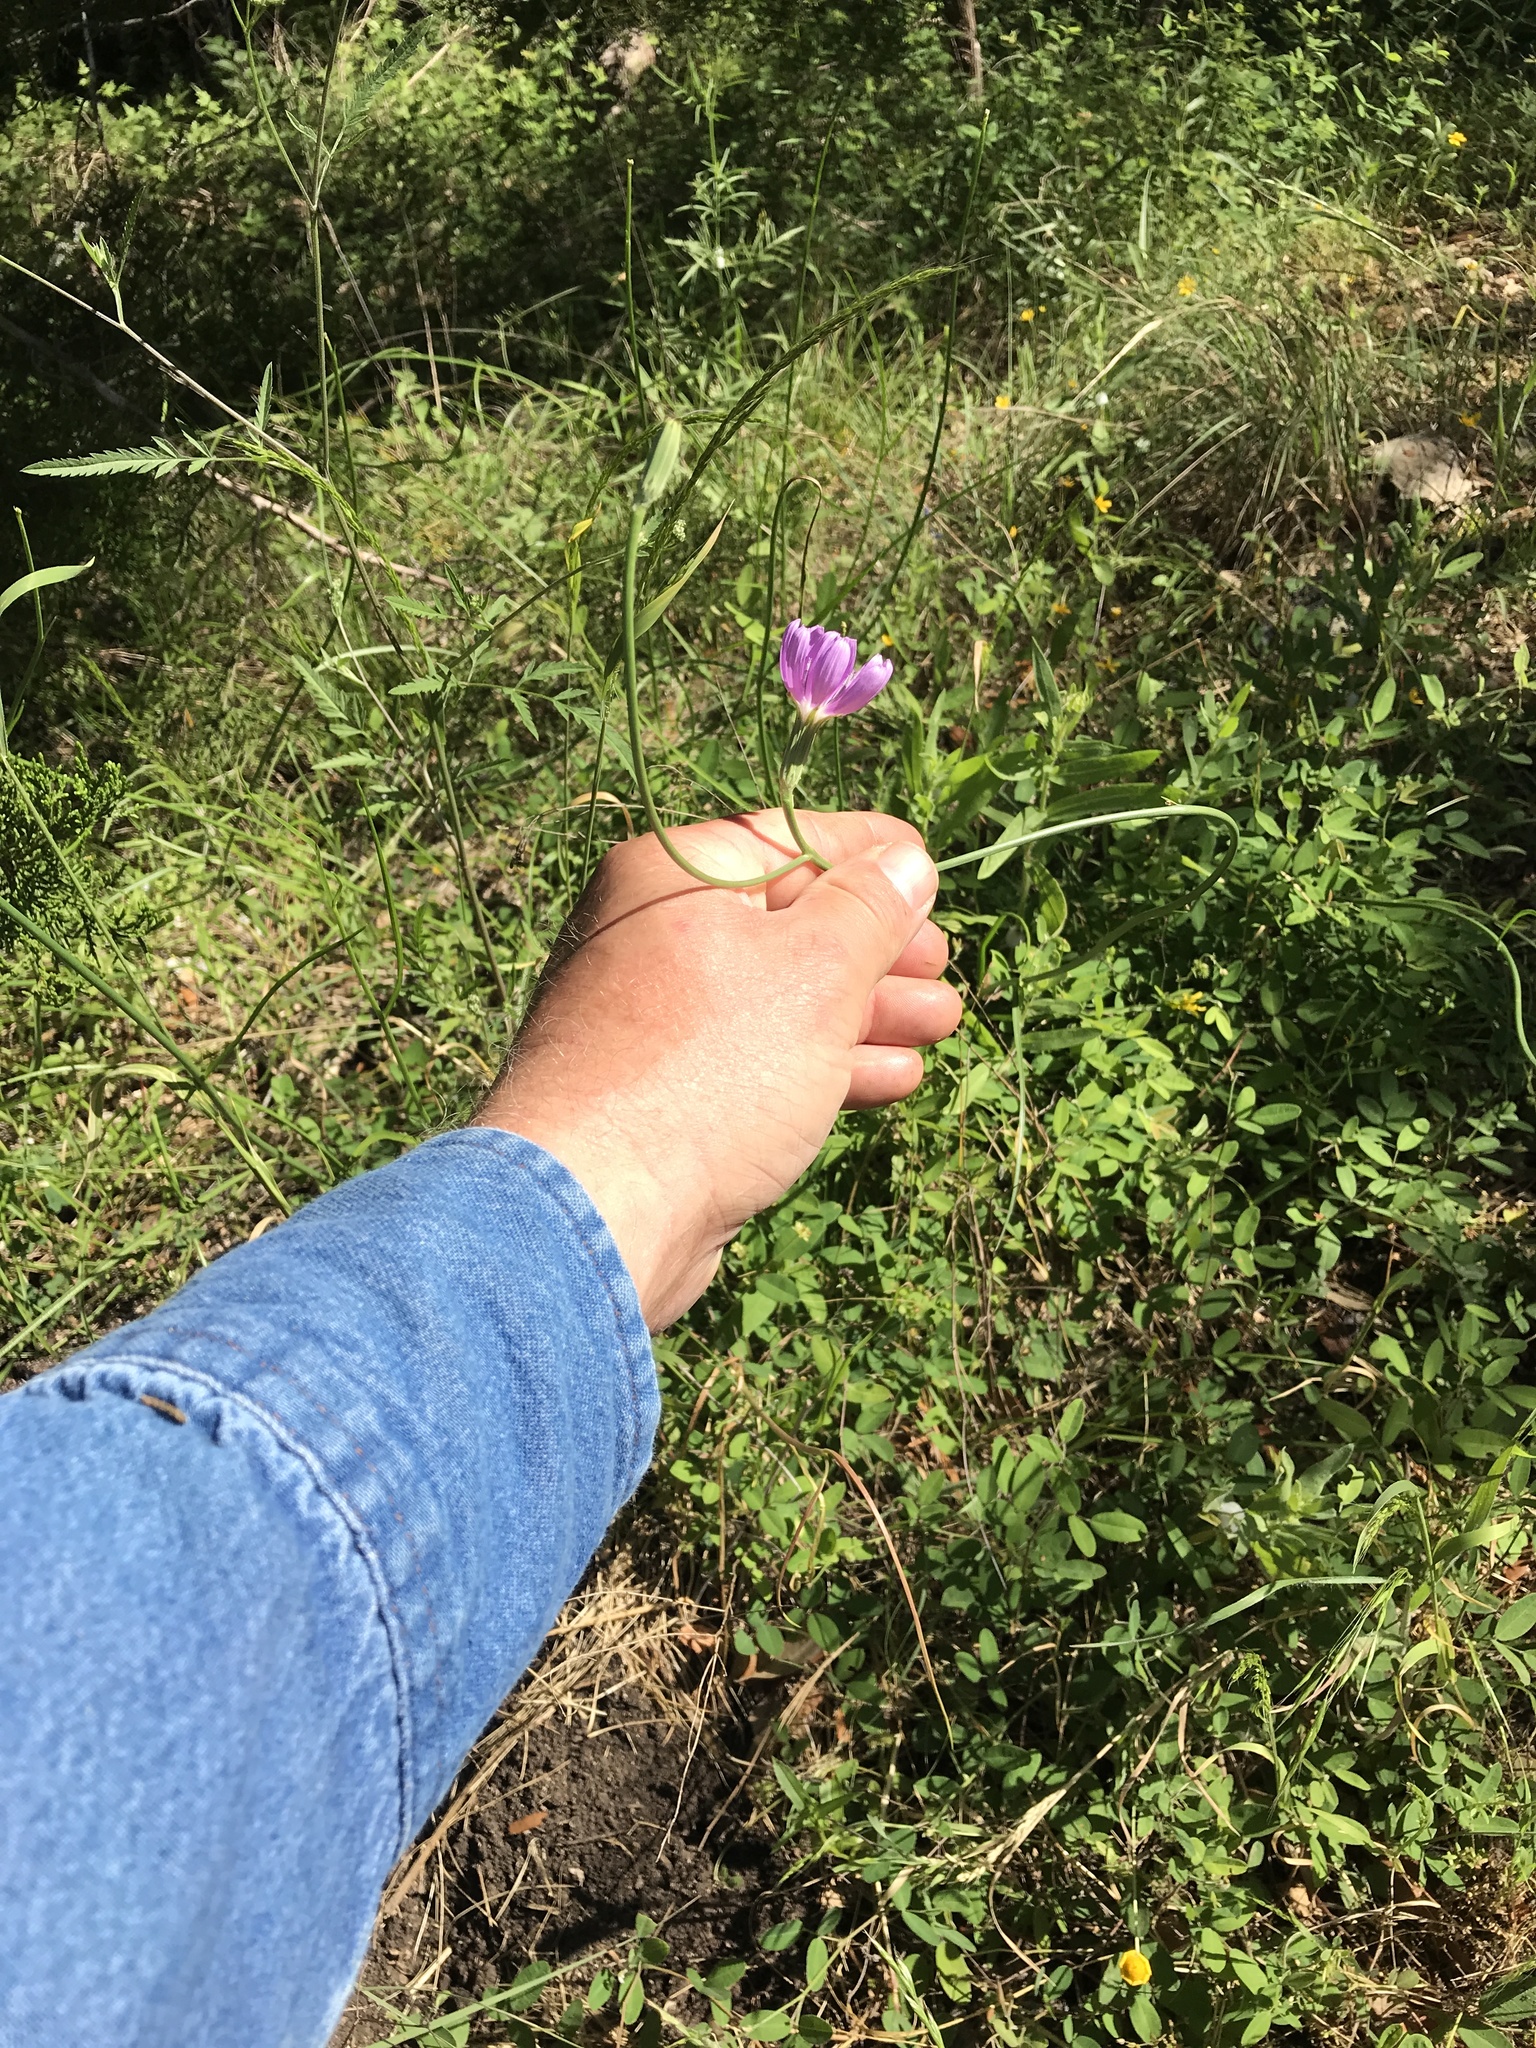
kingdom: Plantae
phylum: Tracheophyta
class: Magnoliopsida
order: Asterales
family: Asteraceae
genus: Lygodesmia
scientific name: Lygodesmia texana
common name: Texas skeleton-plant
